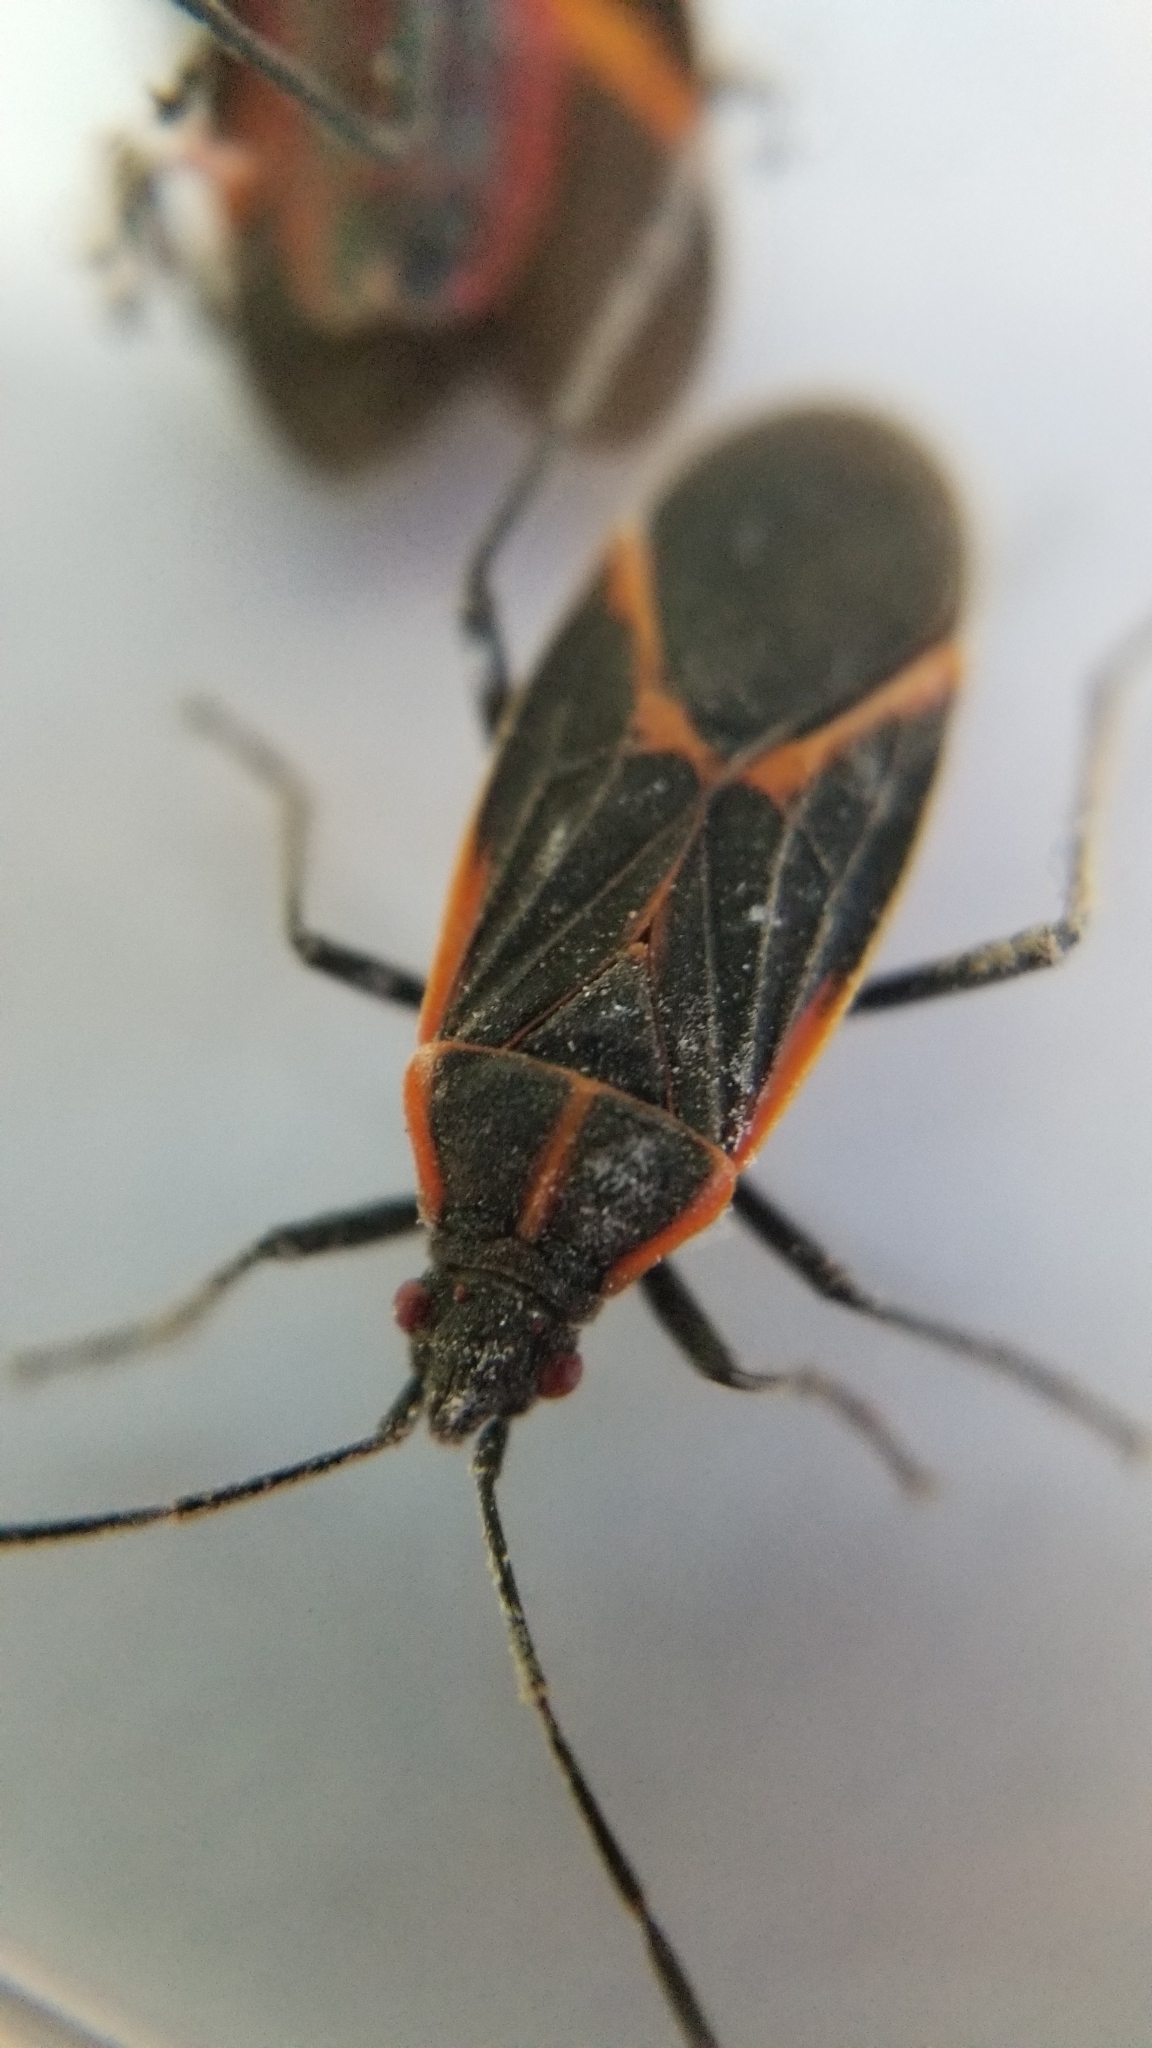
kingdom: Animalia
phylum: Arthropoda
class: Insecta
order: Hemiptera
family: Rhopalidae
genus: Boisea
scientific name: Boisea trivittata
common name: Boxelder bug
